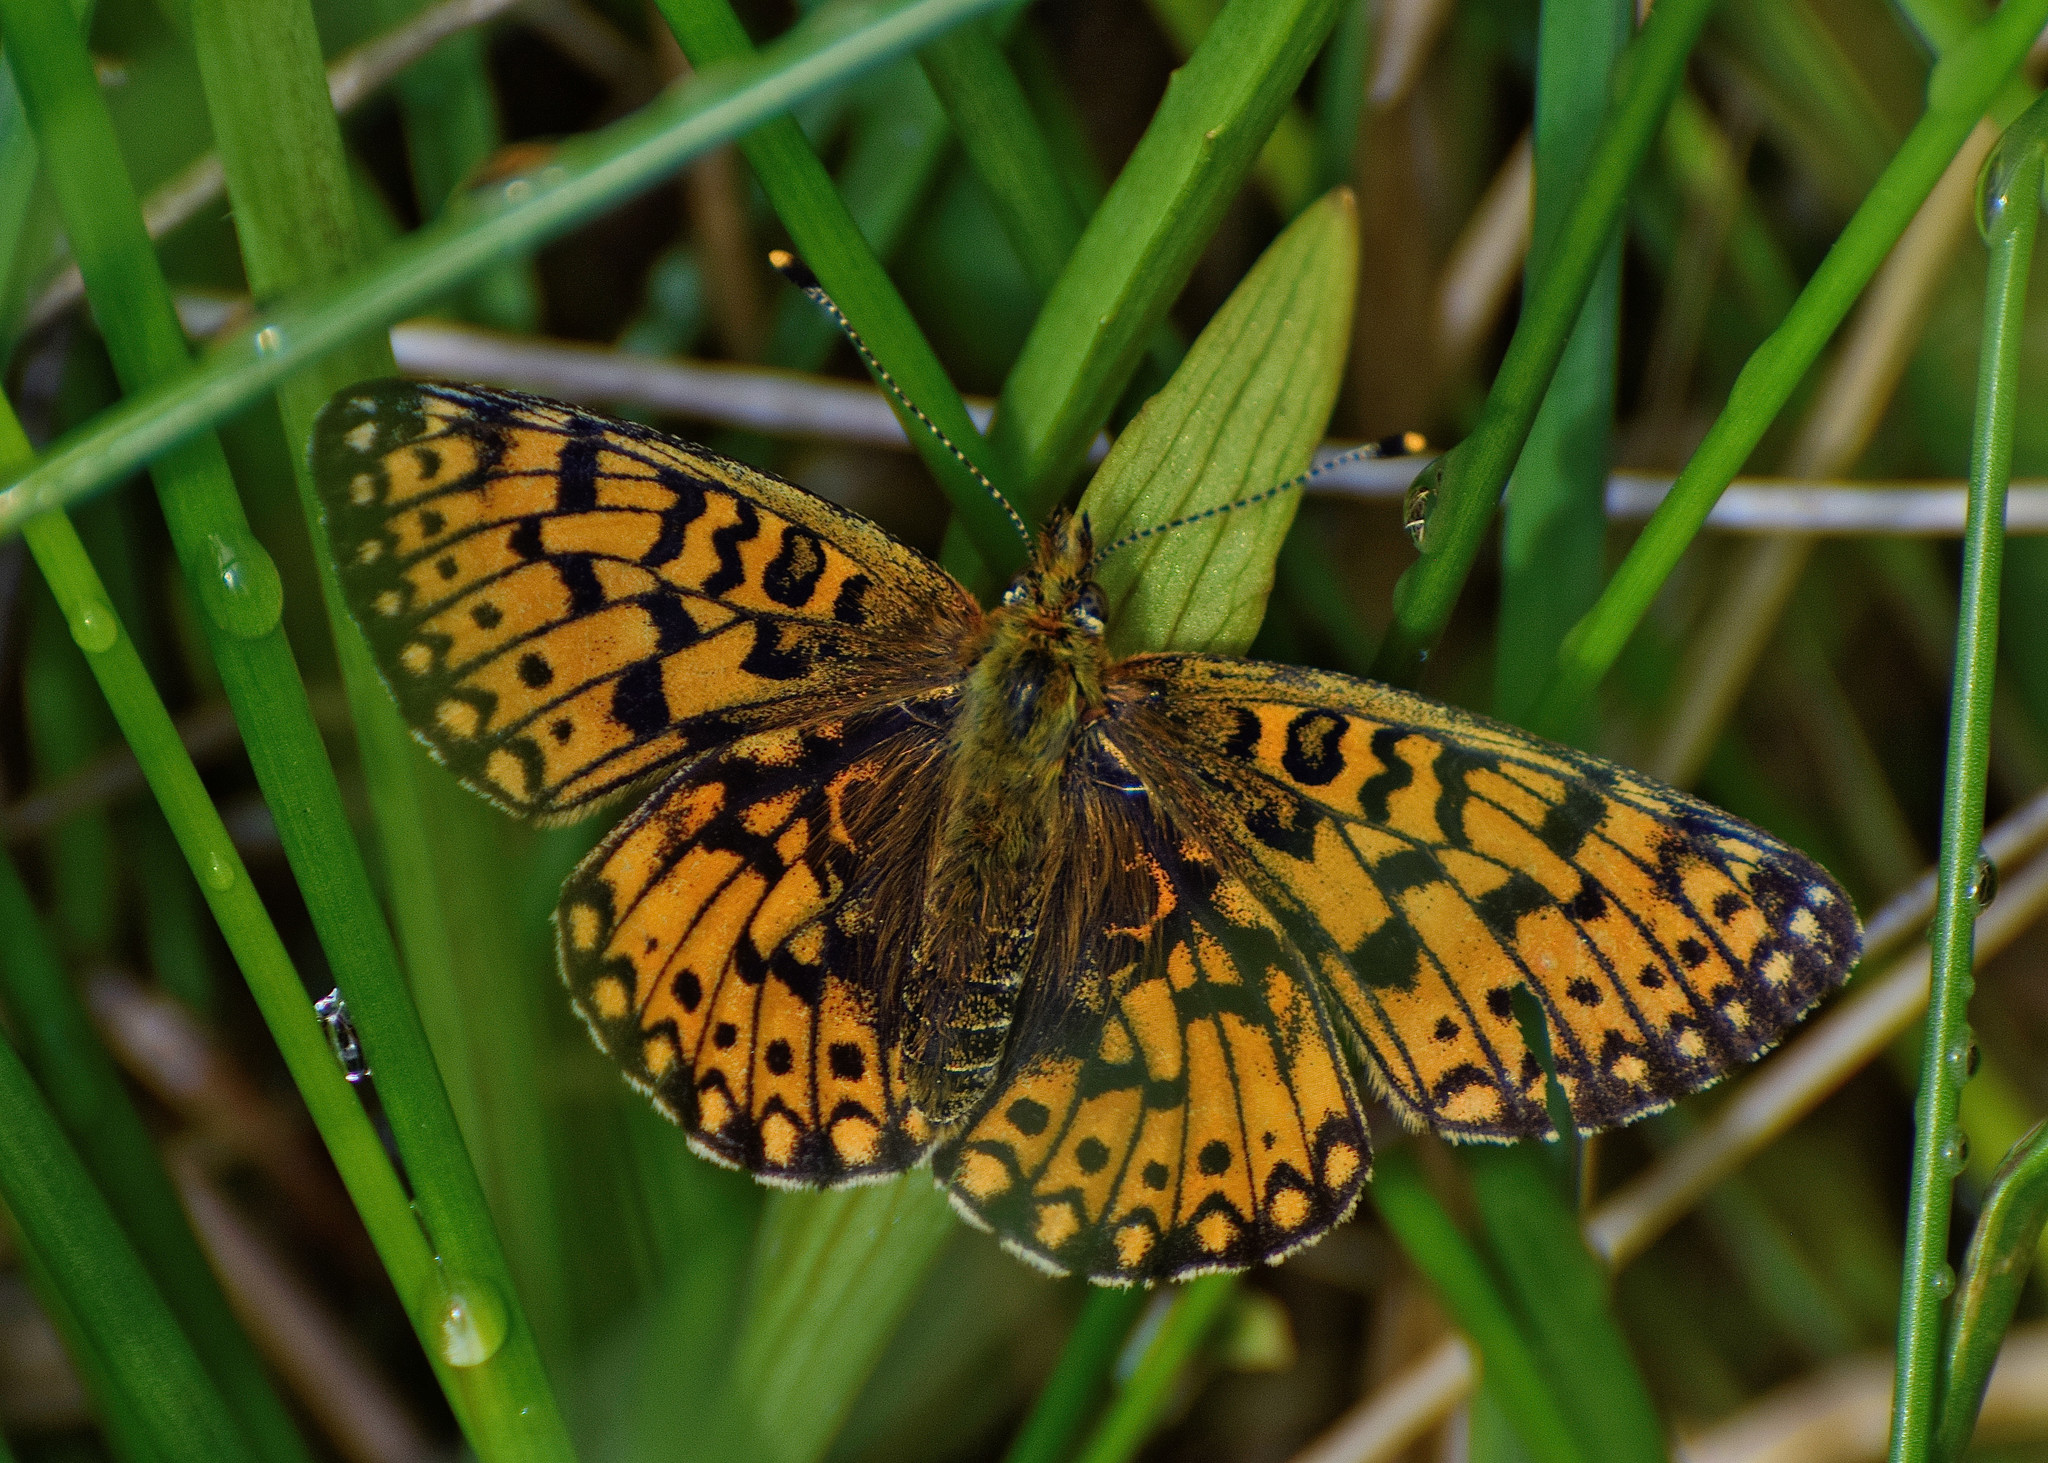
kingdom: Animalia
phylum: Arthropoda
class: Insecta
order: Lepidoptera
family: Nymphalidae
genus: Boloria
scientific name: Boloria selene
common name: Small pearl-bordered fritillary
